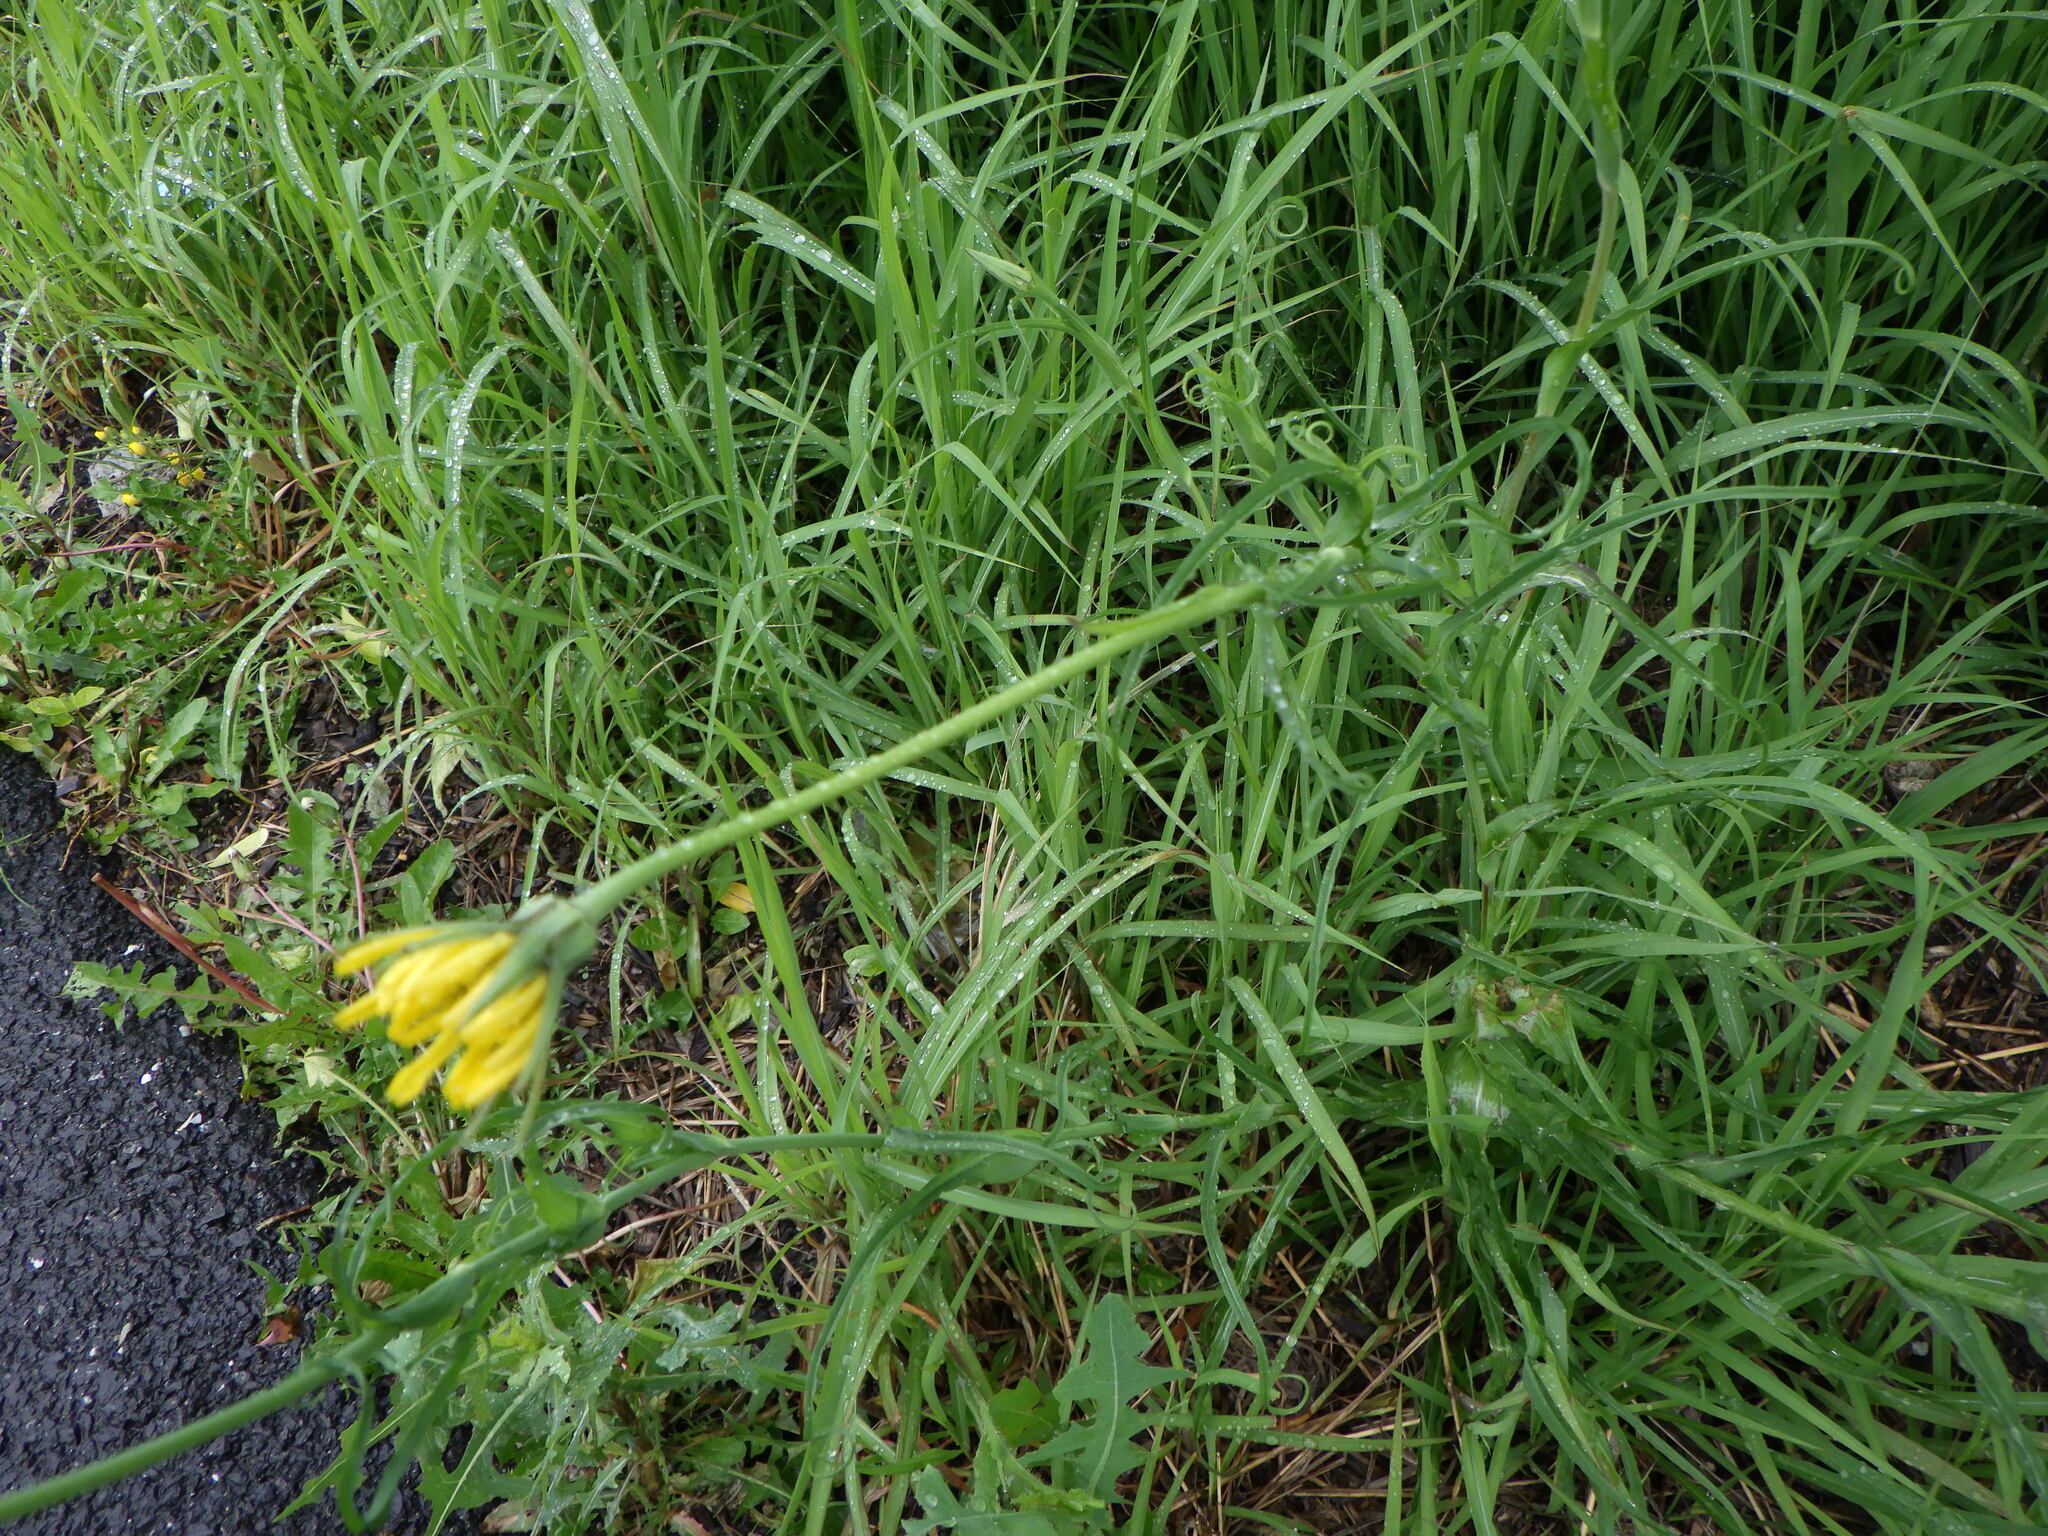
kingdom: Plantae
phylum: Tracheophyta
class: Magnoliopsida
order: Asterales
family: Asteraceae
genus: Tragopogon
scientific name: Tragopogon pratensis
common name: Goat's-beard
